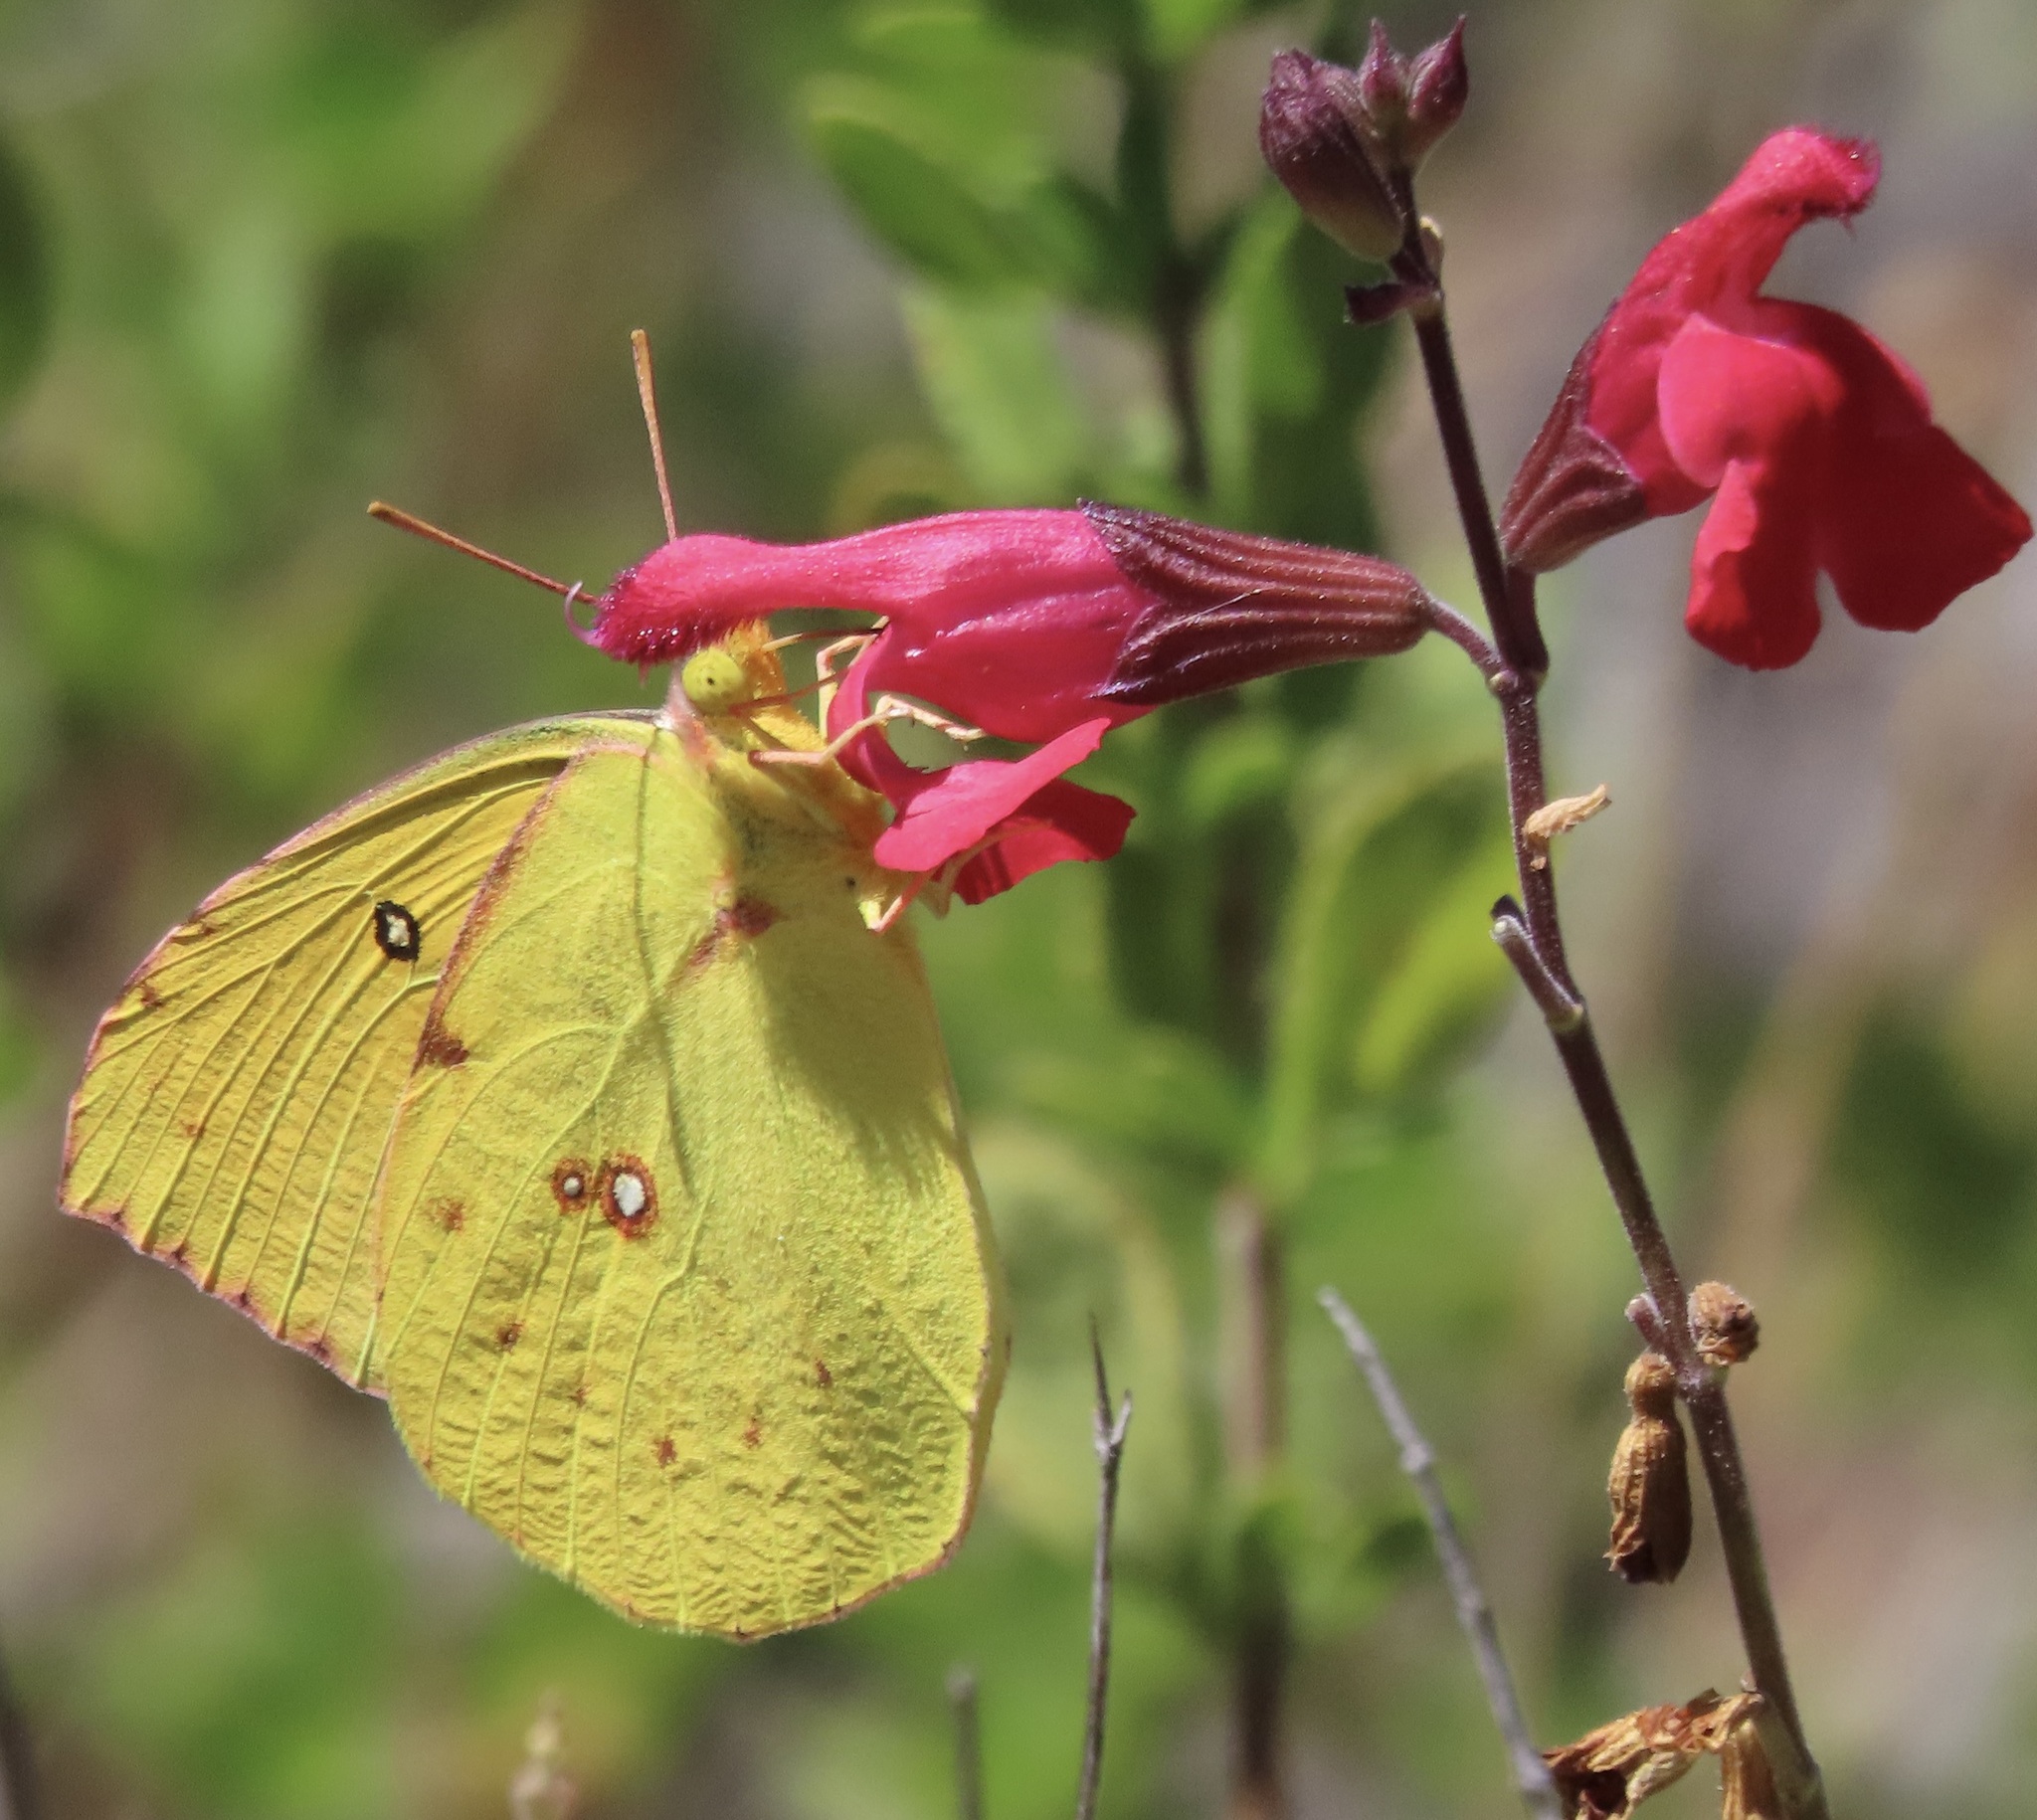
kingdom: Animalia
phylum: Arthropoda
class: Insecta
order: Lepidoptera
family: Pieridae
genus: Zerene
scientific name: Zerene eurydice
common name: California dogface
